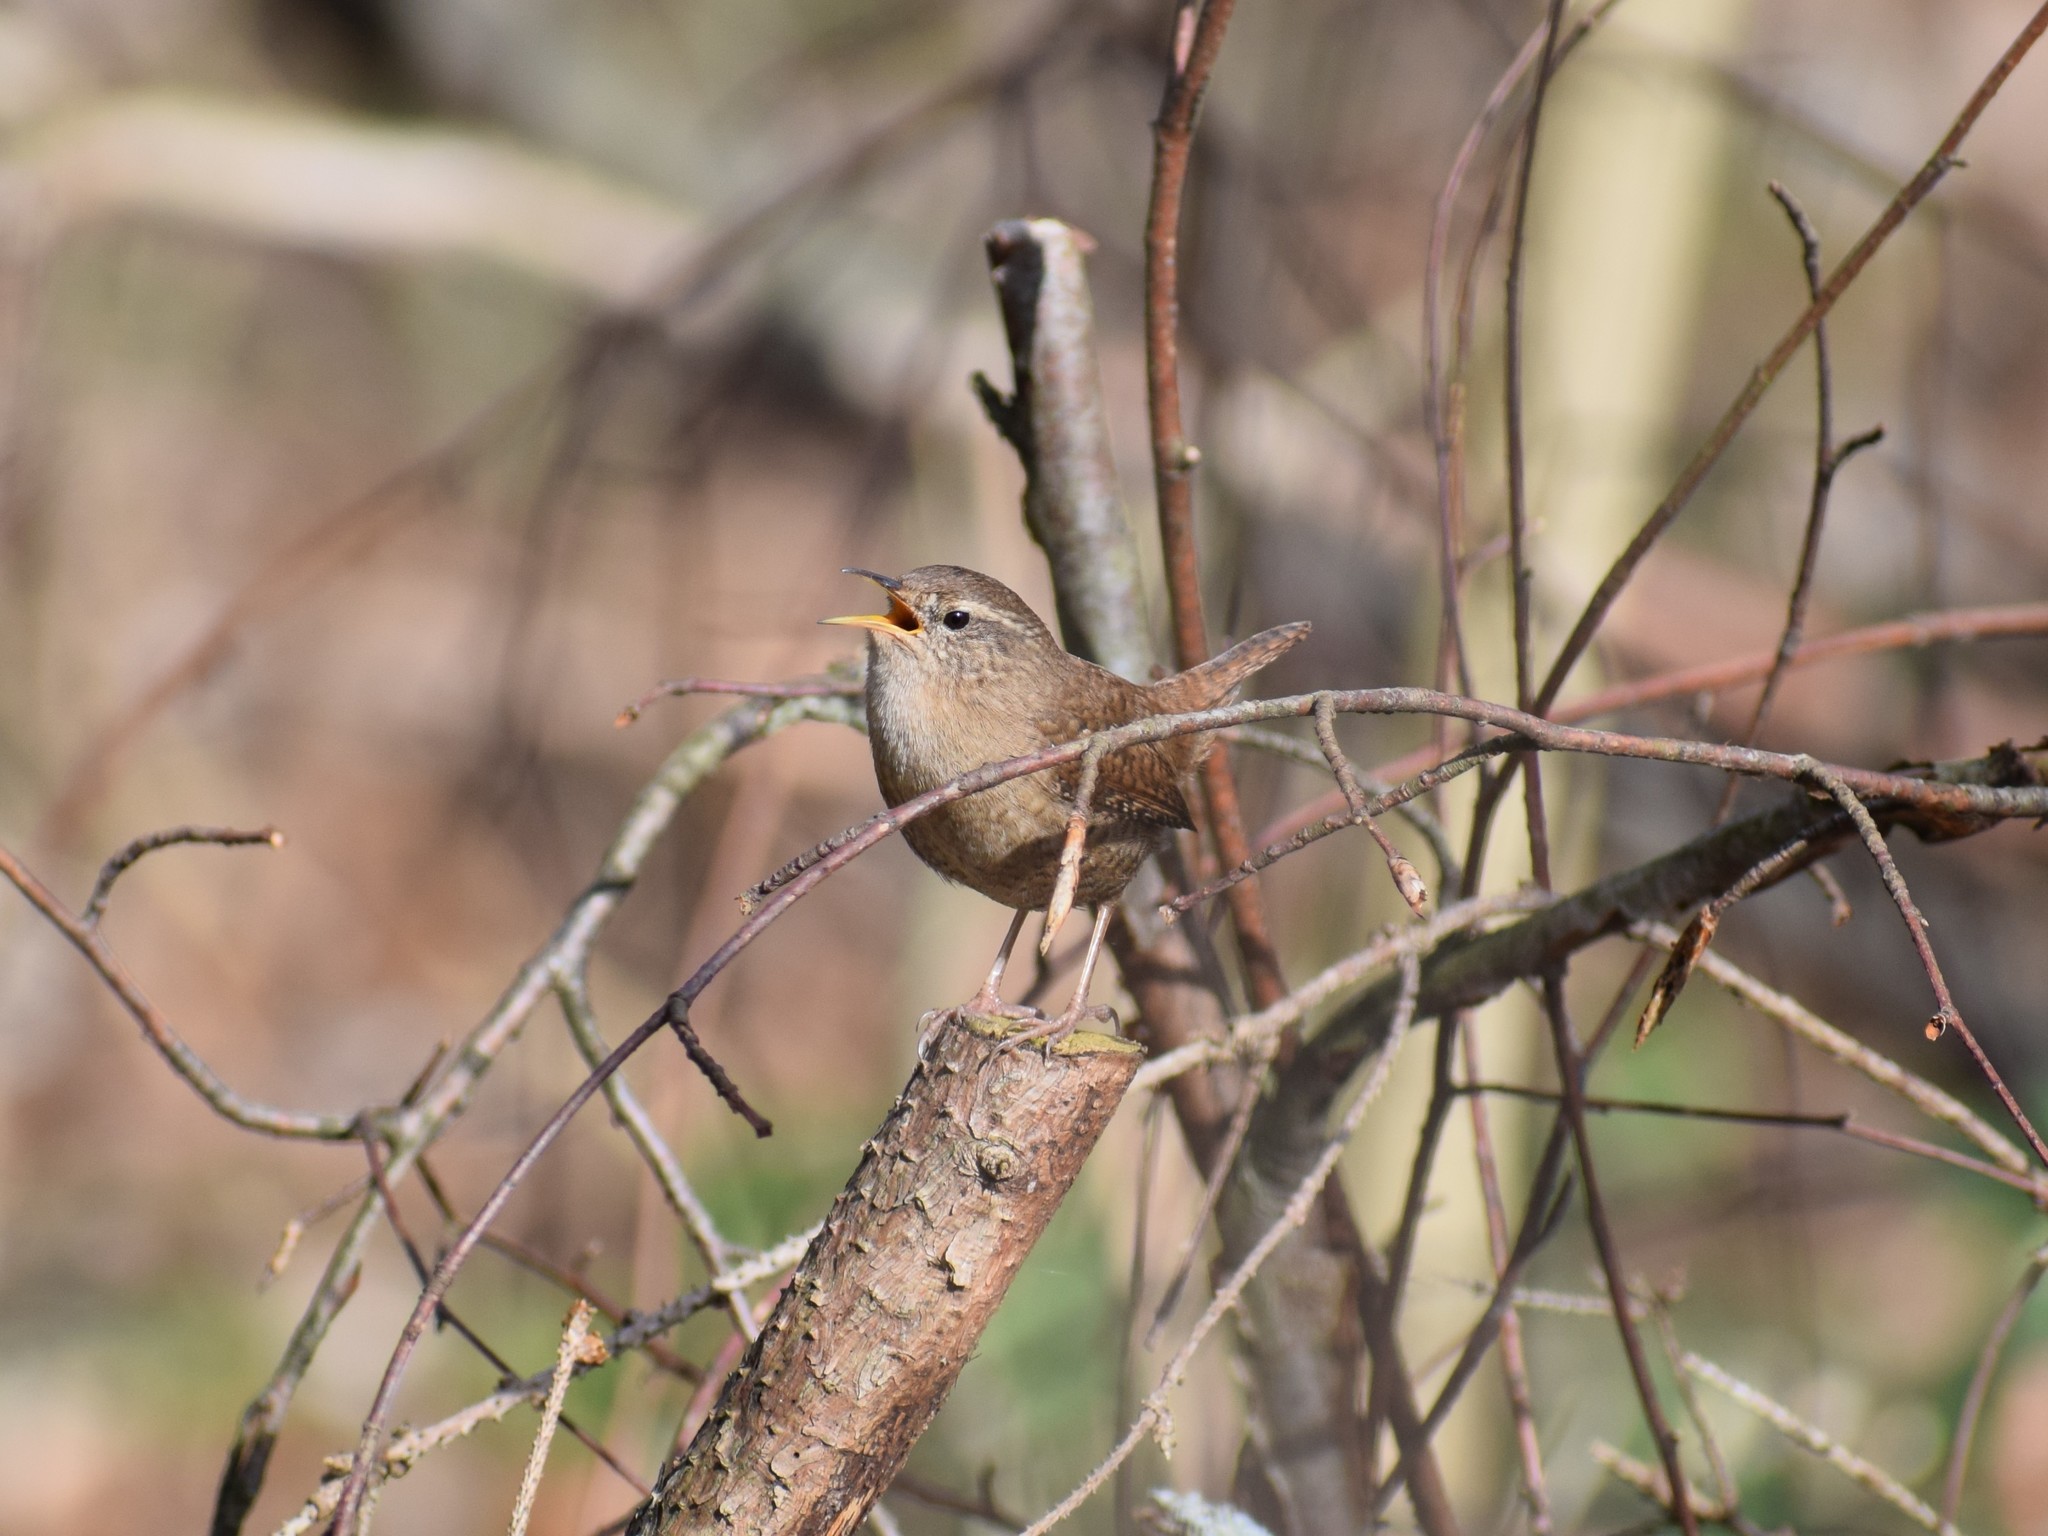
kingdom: Animalia
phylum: Chordata
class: Aves
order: Passeriformes
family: Troglodytidae
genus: Troglodytes
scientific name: Troglodytes troglodytes
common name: Eurasian wren
